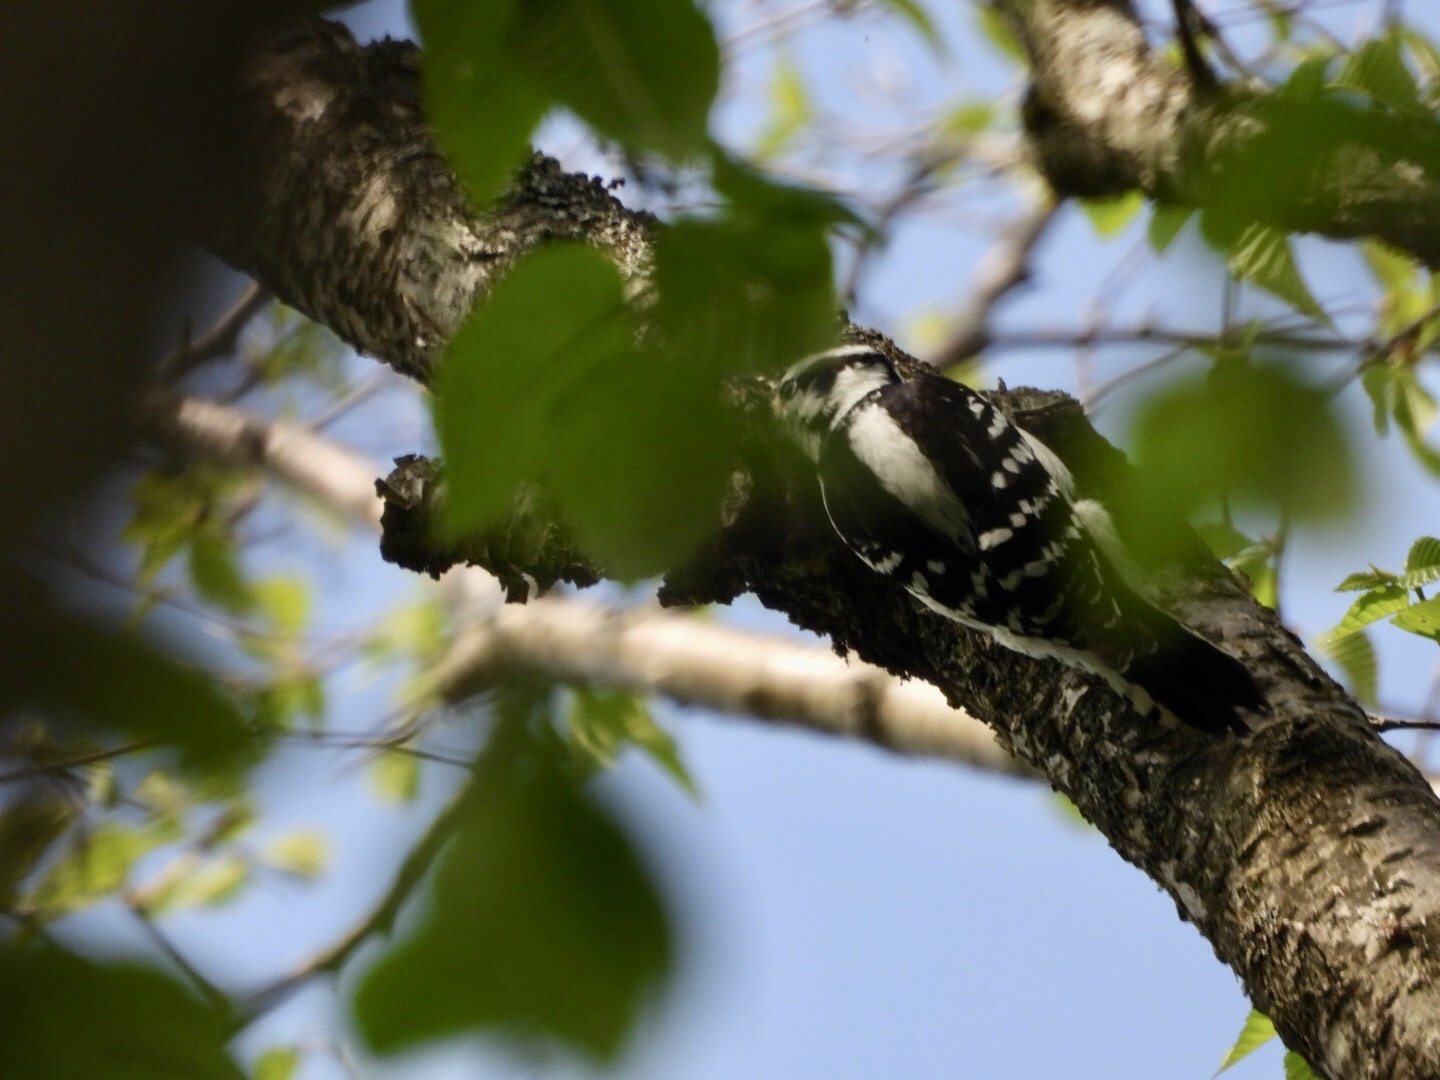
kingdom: Animalia
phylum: Chordata
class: Aves
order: Piciformes
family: Picidae
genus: Dryobates
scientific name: Dryobates pubescens
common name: Downy woodpecker
